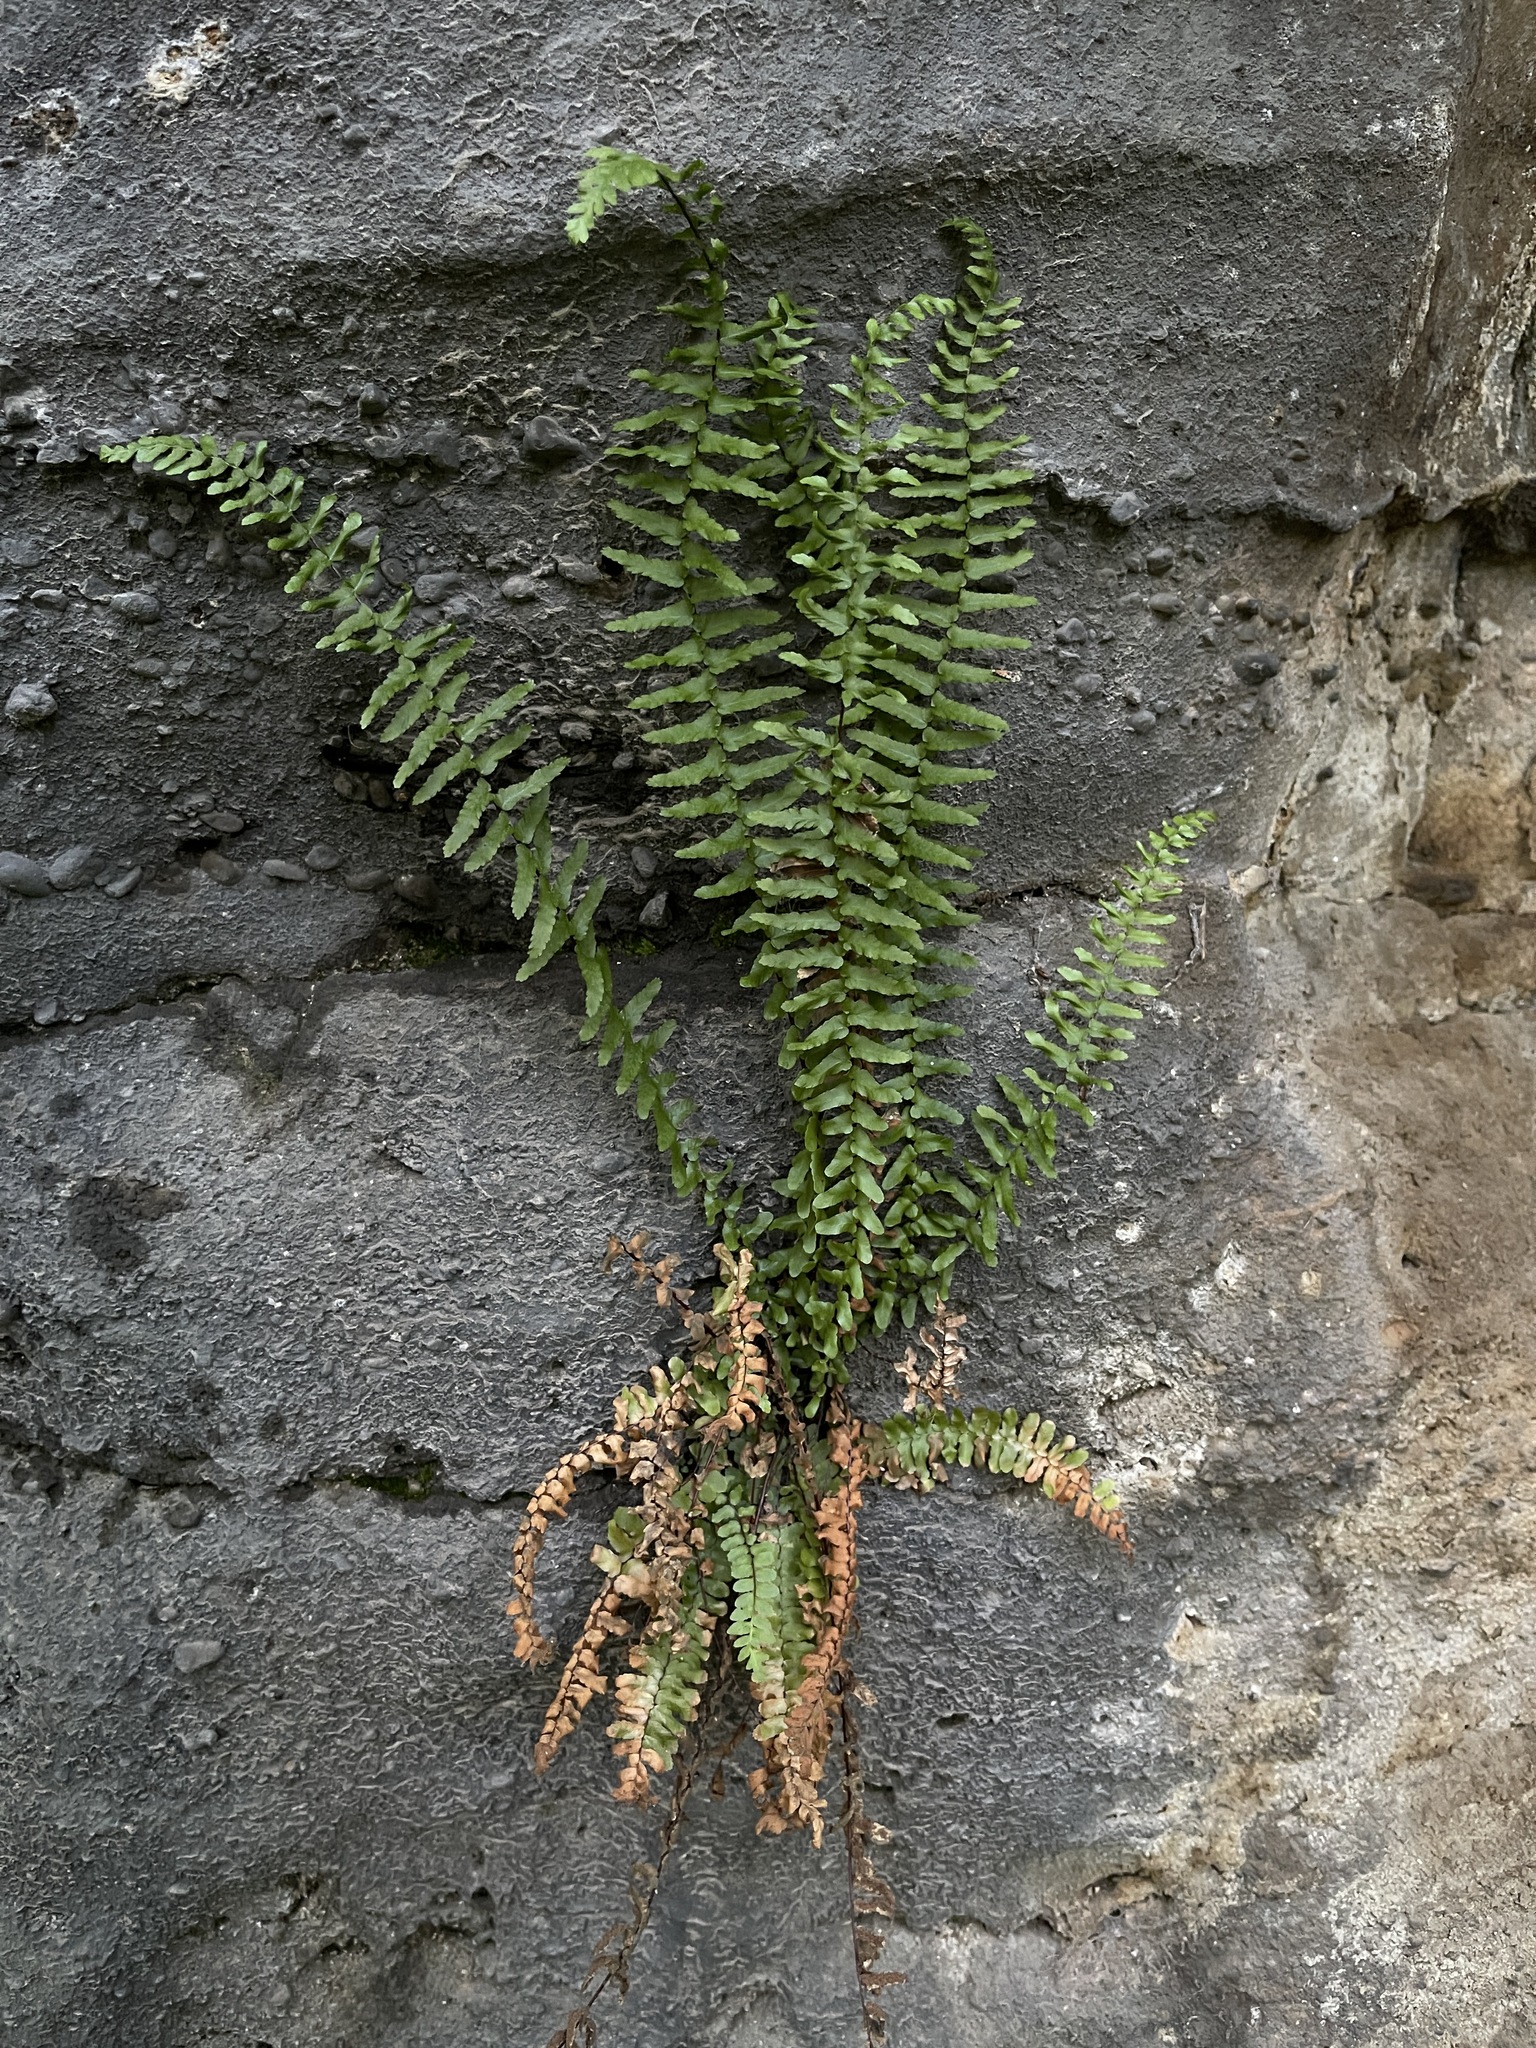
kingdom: Plantae
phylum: Tracheophyta
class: Polypodiopsida
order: Polypodiales
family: Aspleniaceae
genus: Asplenium
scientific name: Asplenium platyneuron
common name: Ebony spleenwort
